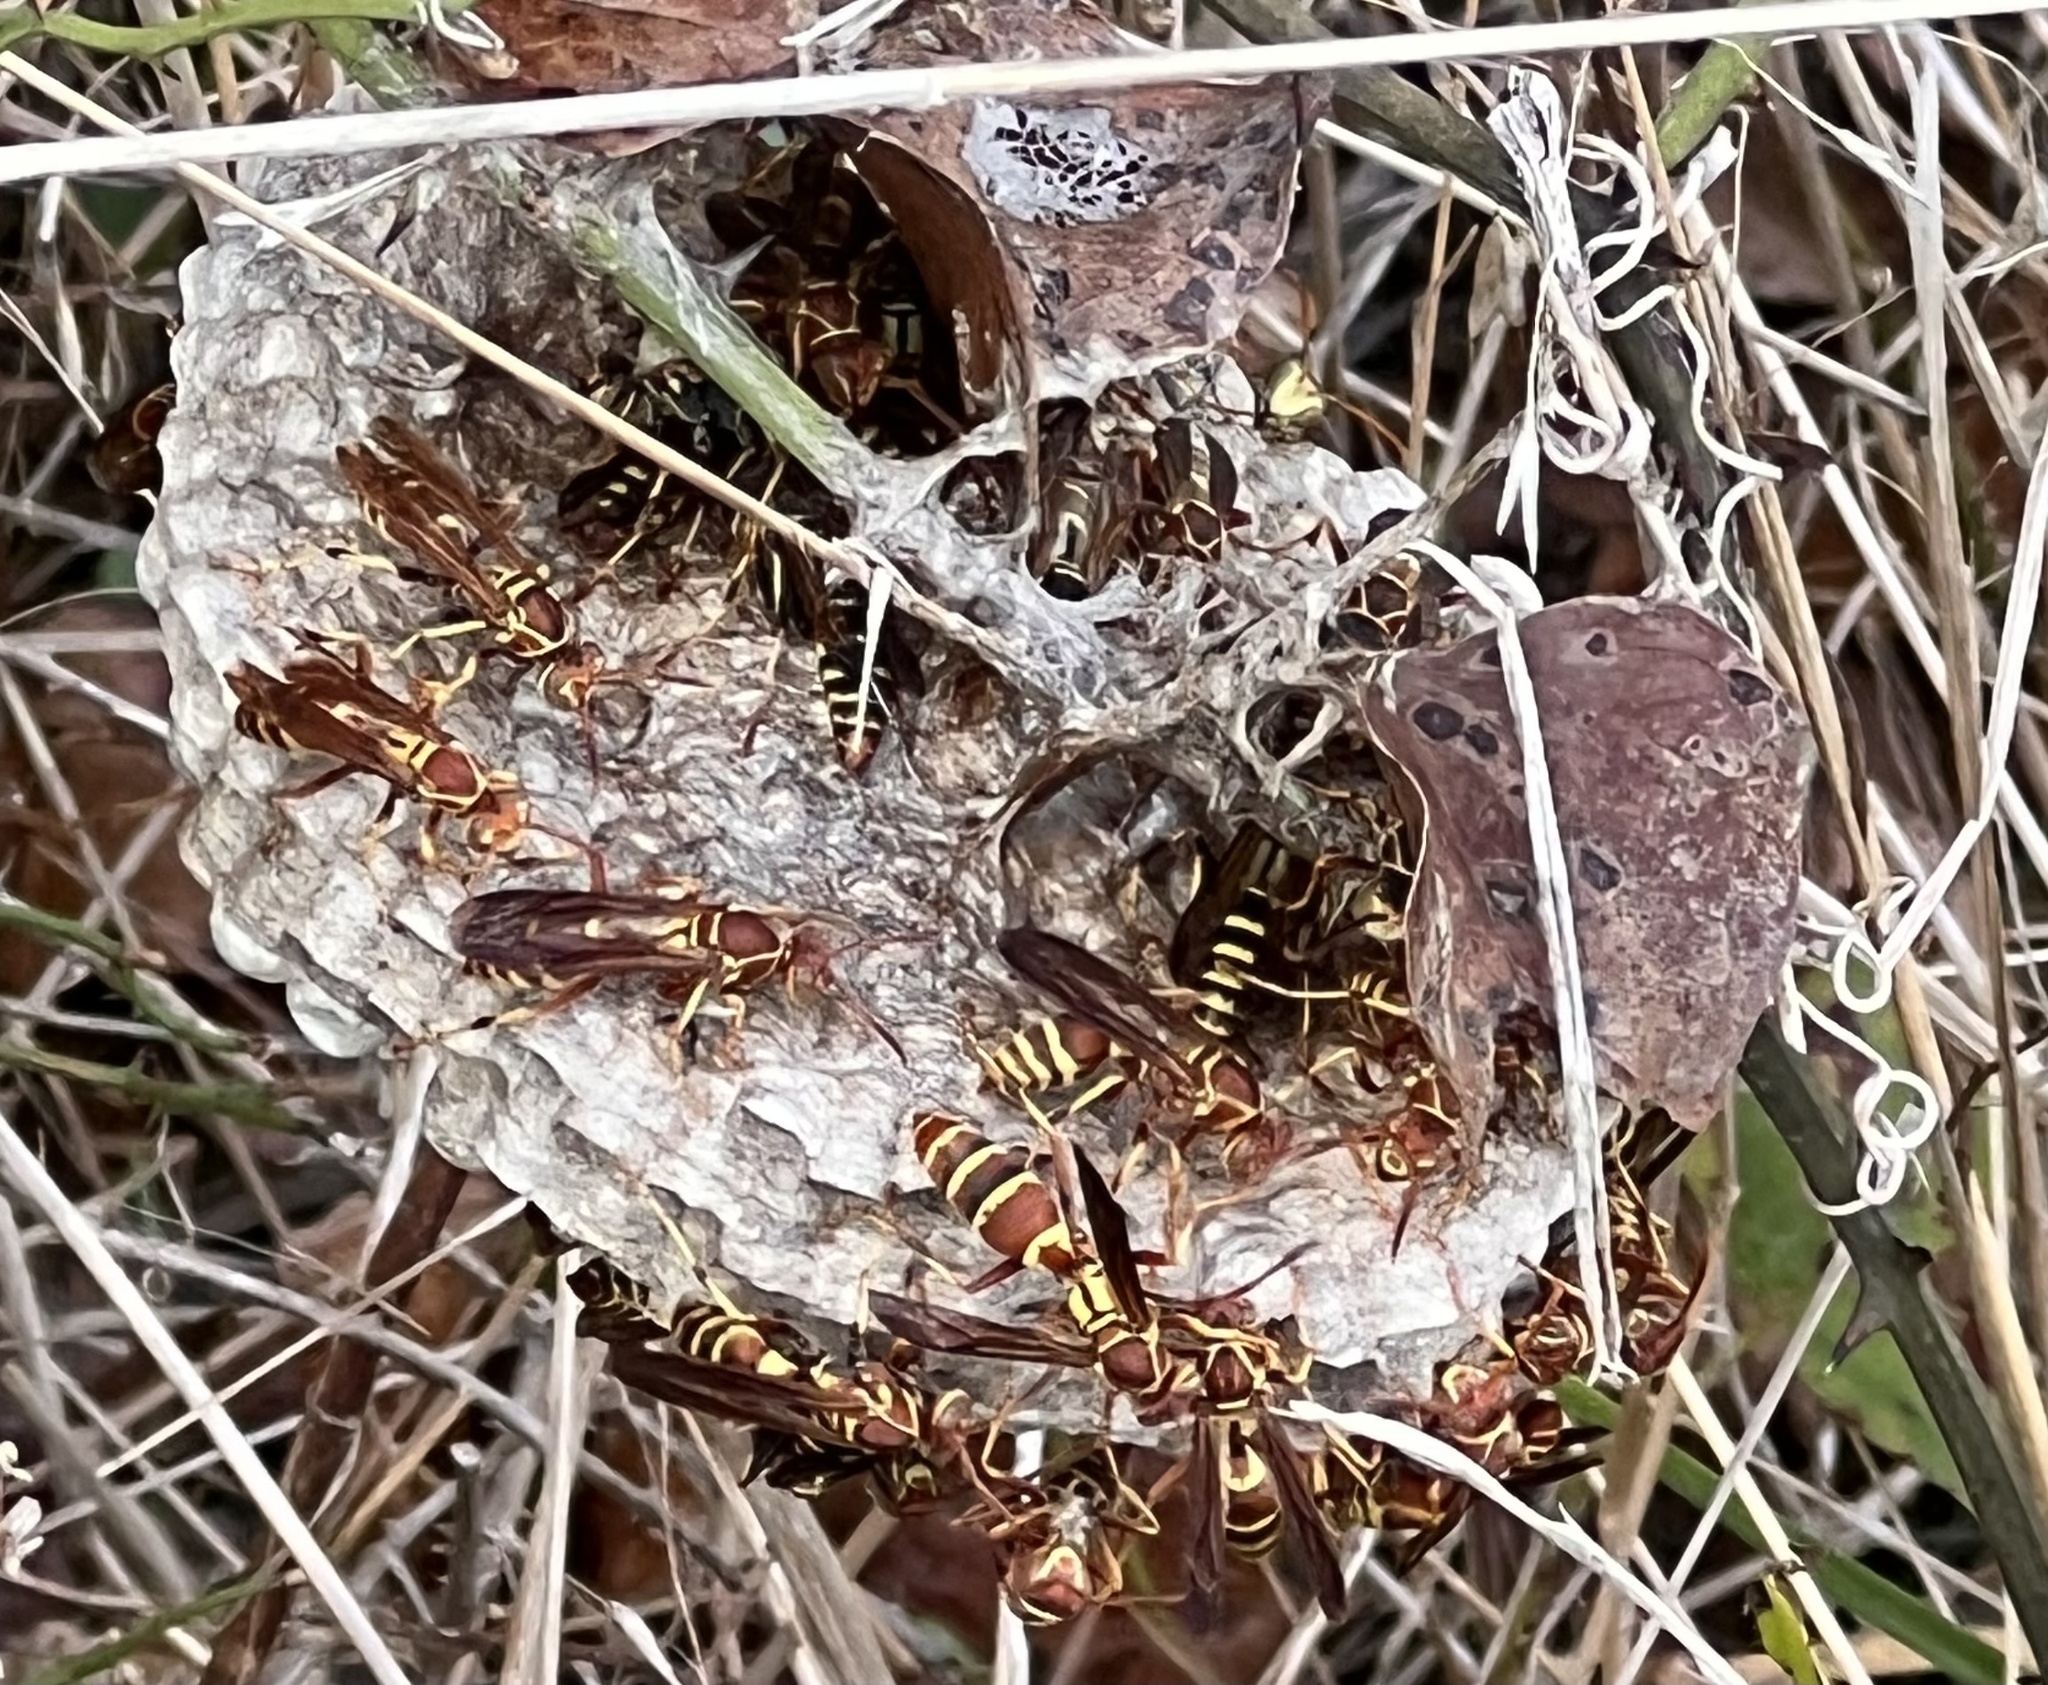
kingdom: Animalia
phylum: Arthropoda
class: Insecta
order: Hymenoptera
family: Eumenidae
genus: Polistes
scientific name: Polistes dorsalis
